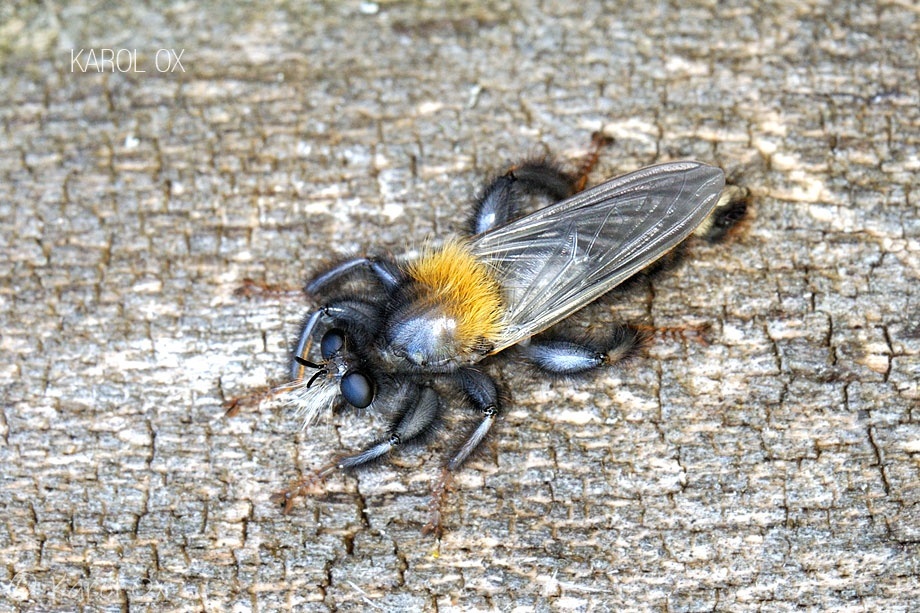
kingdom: Animalia
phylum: Arthropoda
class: Insecta
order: Diptera
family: Asilidae
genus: Laphria
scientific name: Laphria ephippium
